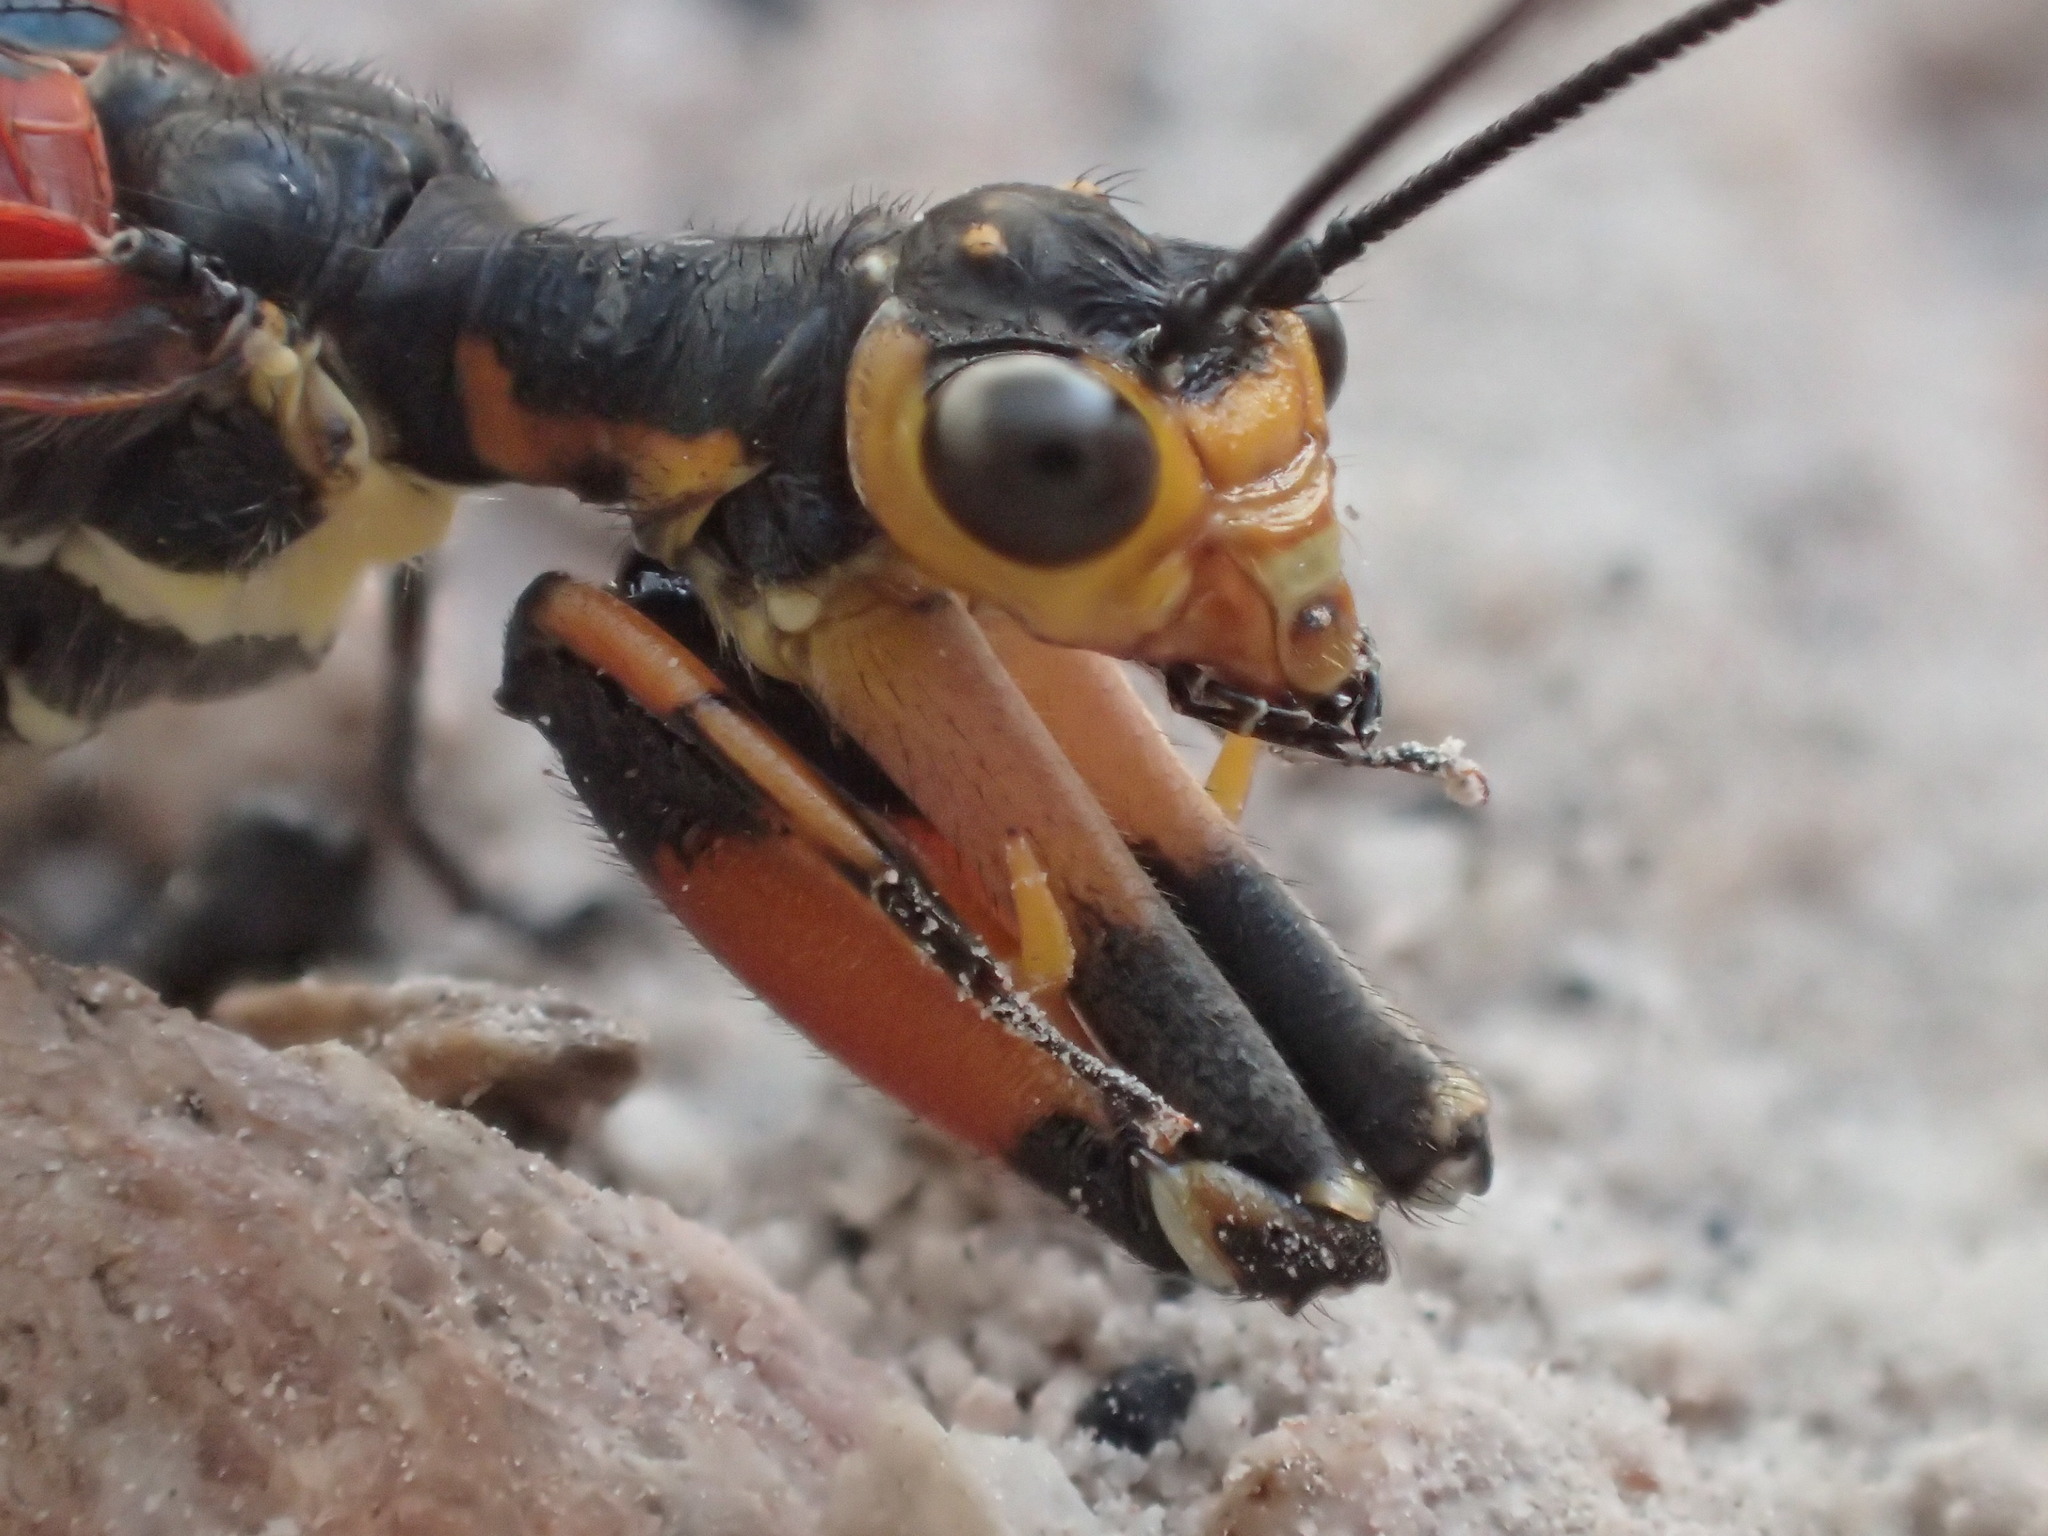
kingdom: Animalia
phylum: Arthropoda
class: Insecta
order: Neuroptera
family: Mantispidae
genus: Calomantispa
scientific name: Calomantispa venusta
